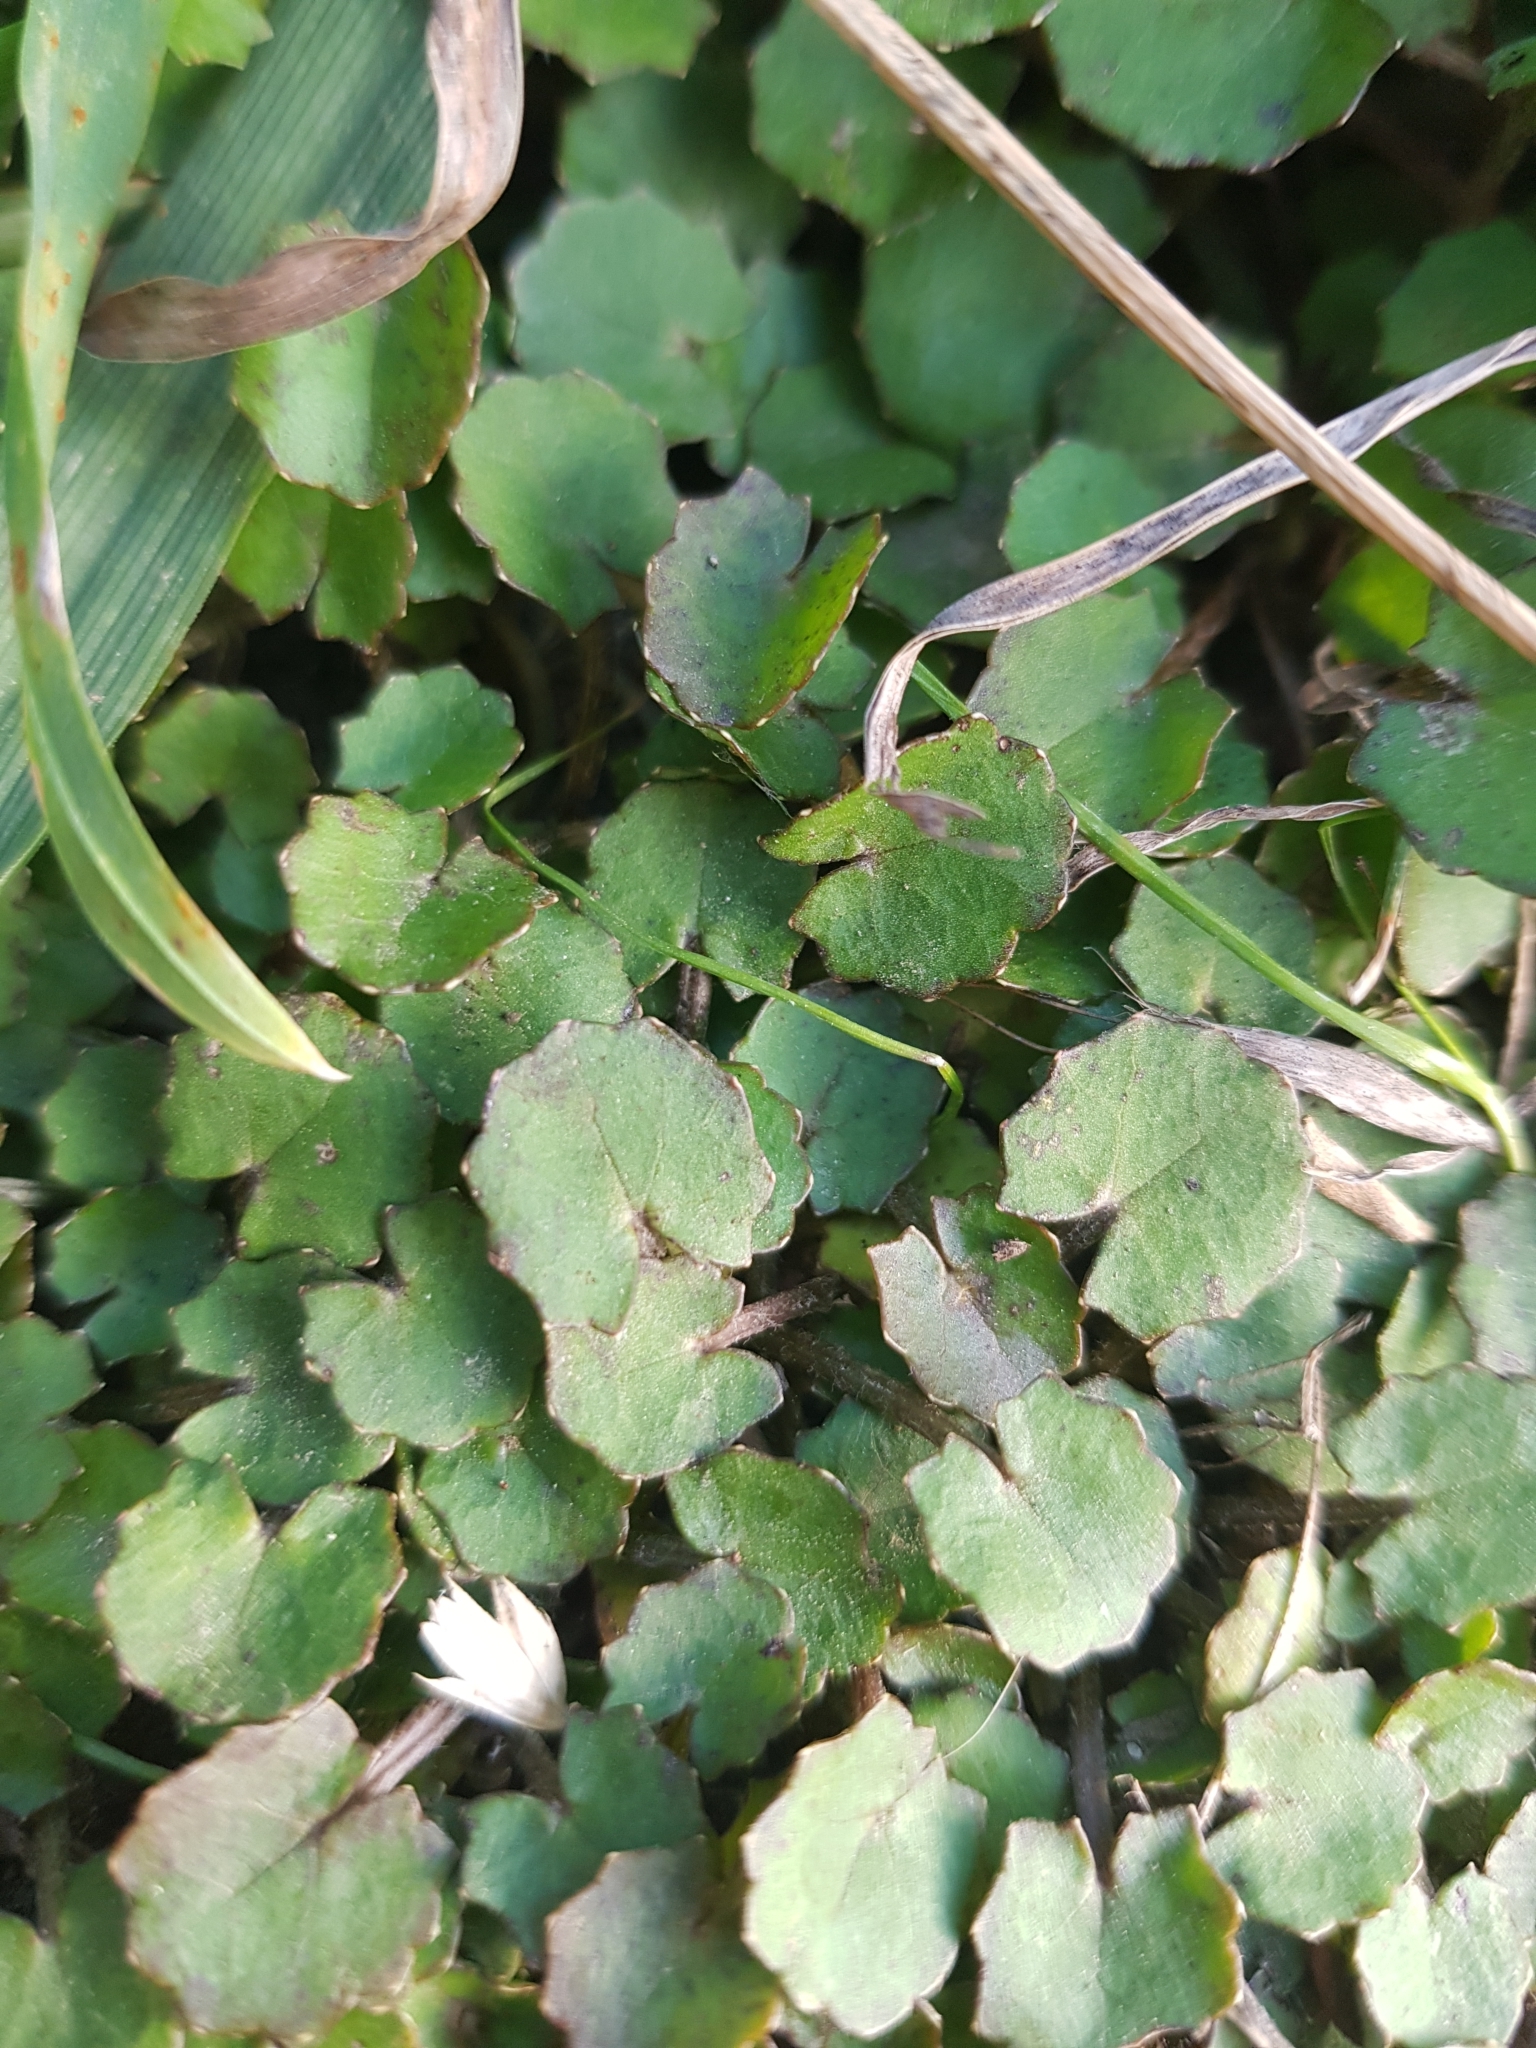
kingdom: Plantae
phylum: Tracheophyta
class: Magnoliopsida
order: Apiales
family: Apiaceae
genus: Centella
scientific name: Centella uniflora
